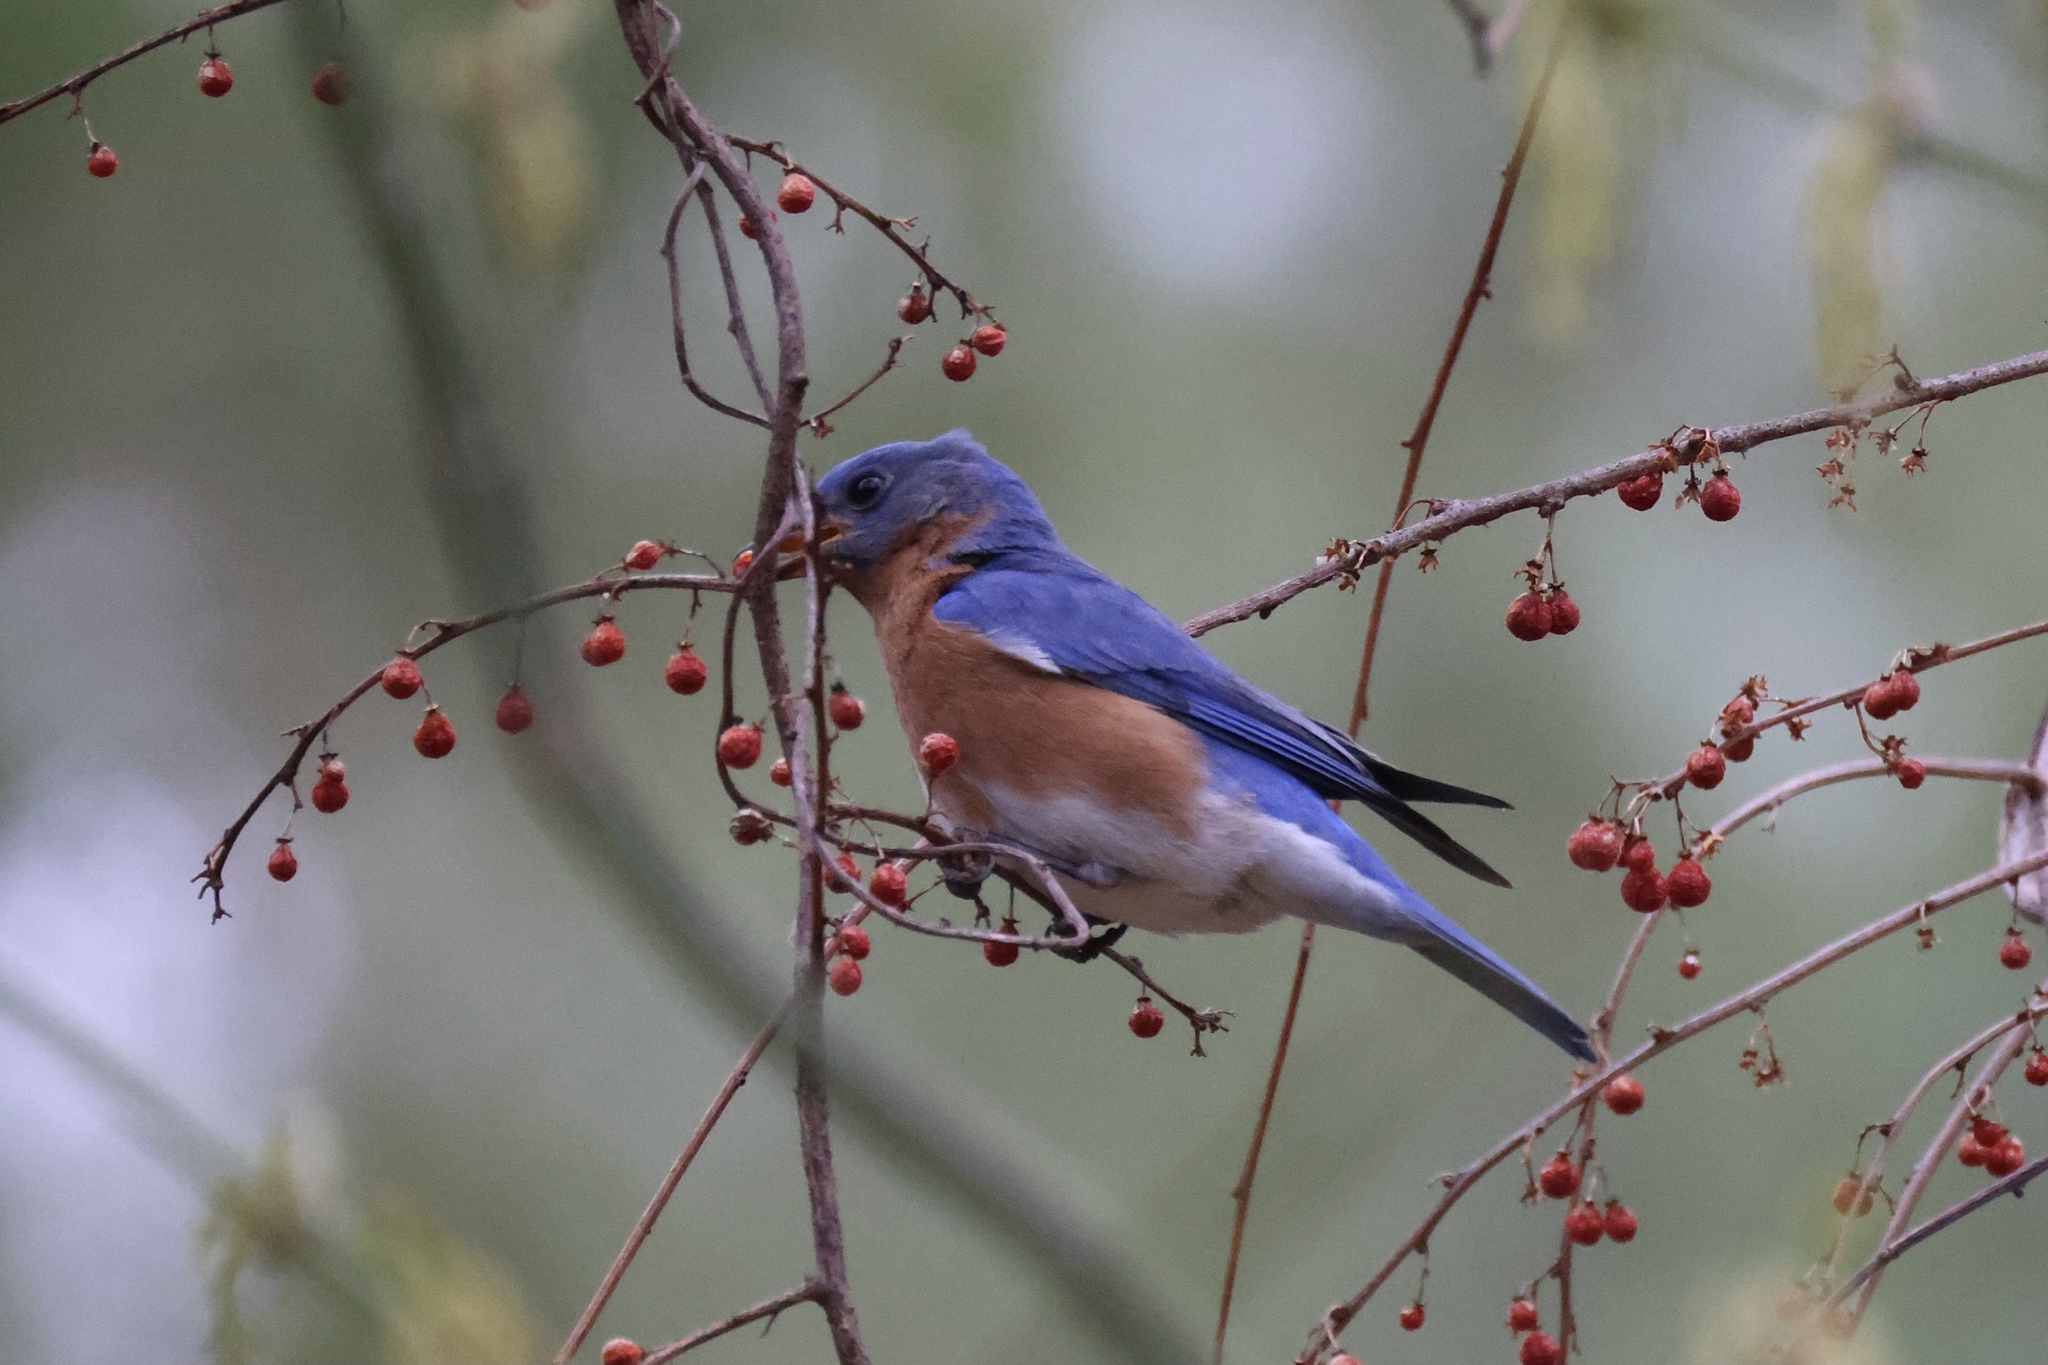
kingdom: Animalia
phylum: Chordata
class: Aves
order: Passeriformes
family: Turdidae
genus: Sialia
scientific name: Sialia sialis
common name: Eastern bluebird
